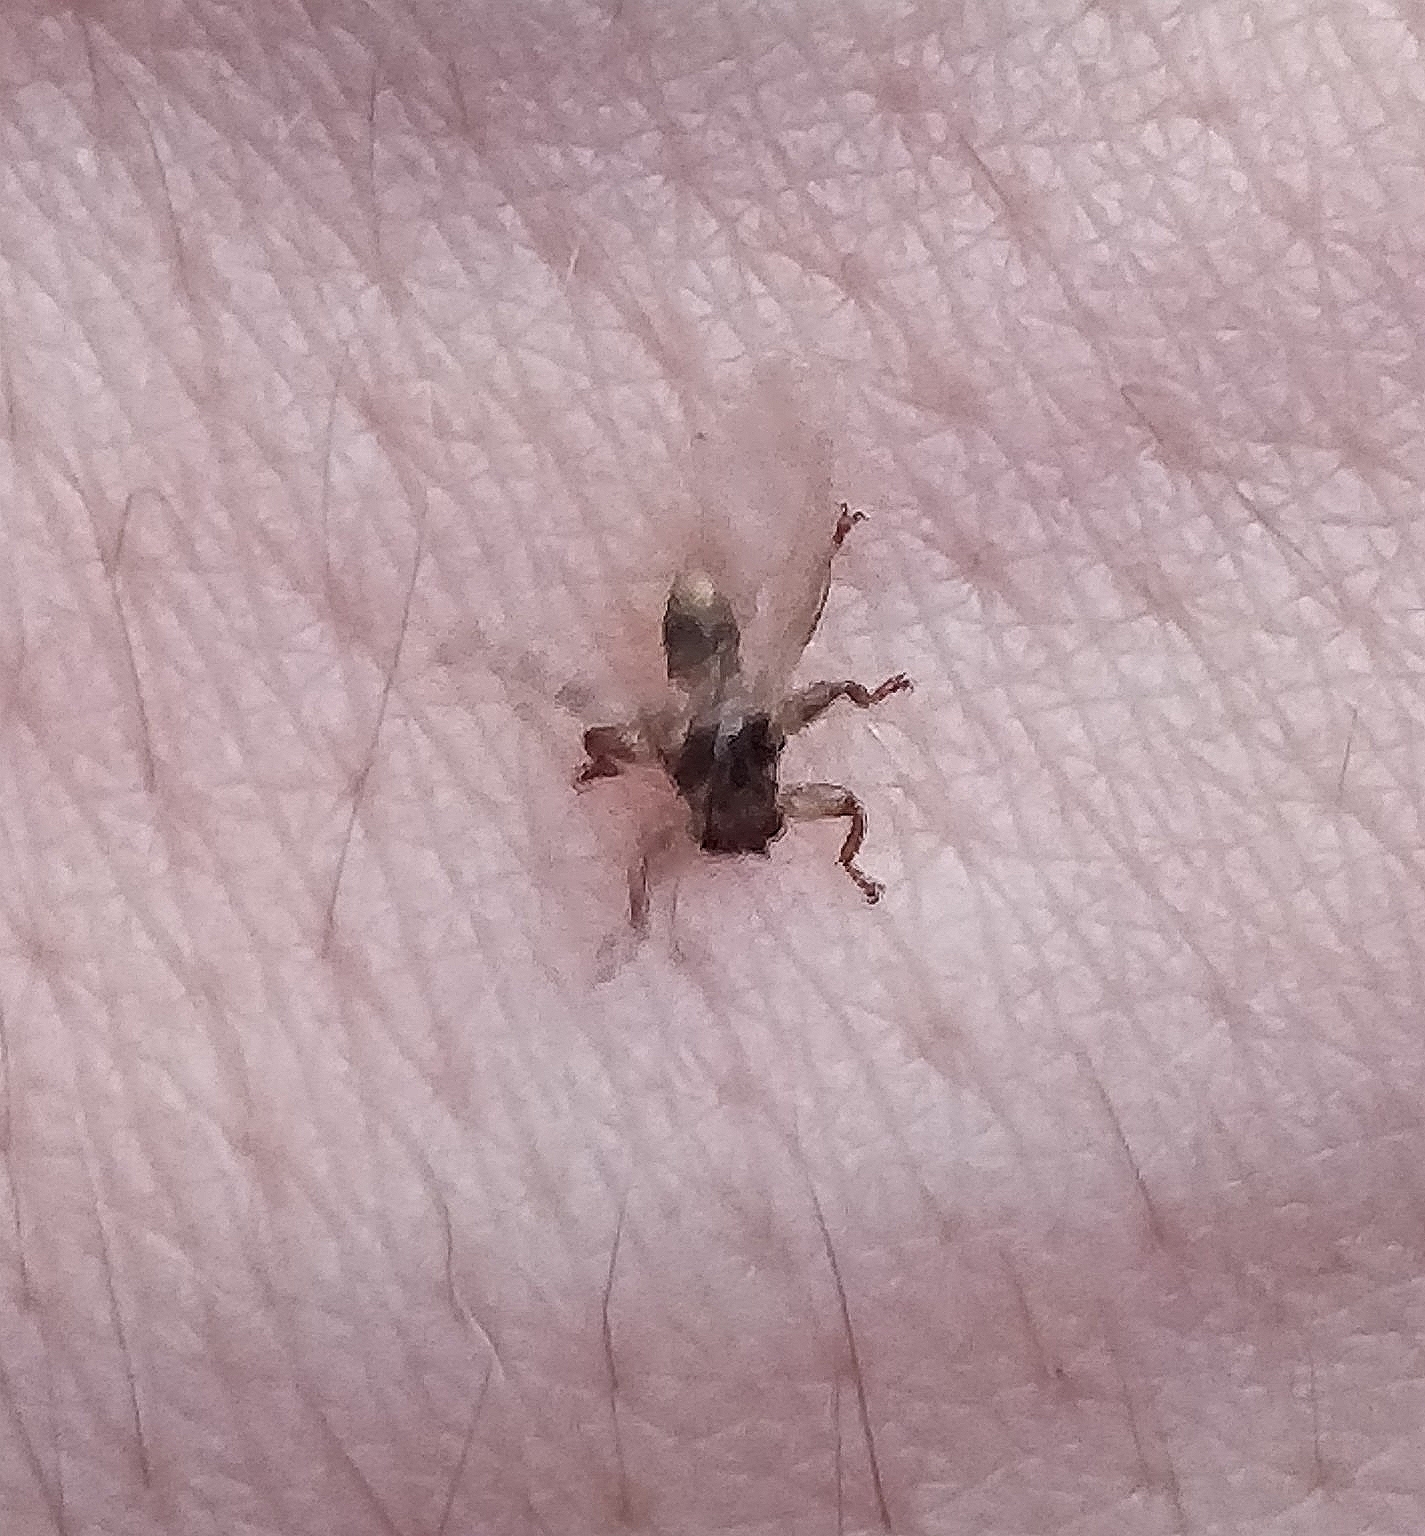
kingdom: Animalia
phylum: Arthropoda
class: Insecta
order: Diptera
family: Hippoboscidae
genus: Lipoptena
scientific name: Lipoptena cervi
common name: Deer ked
